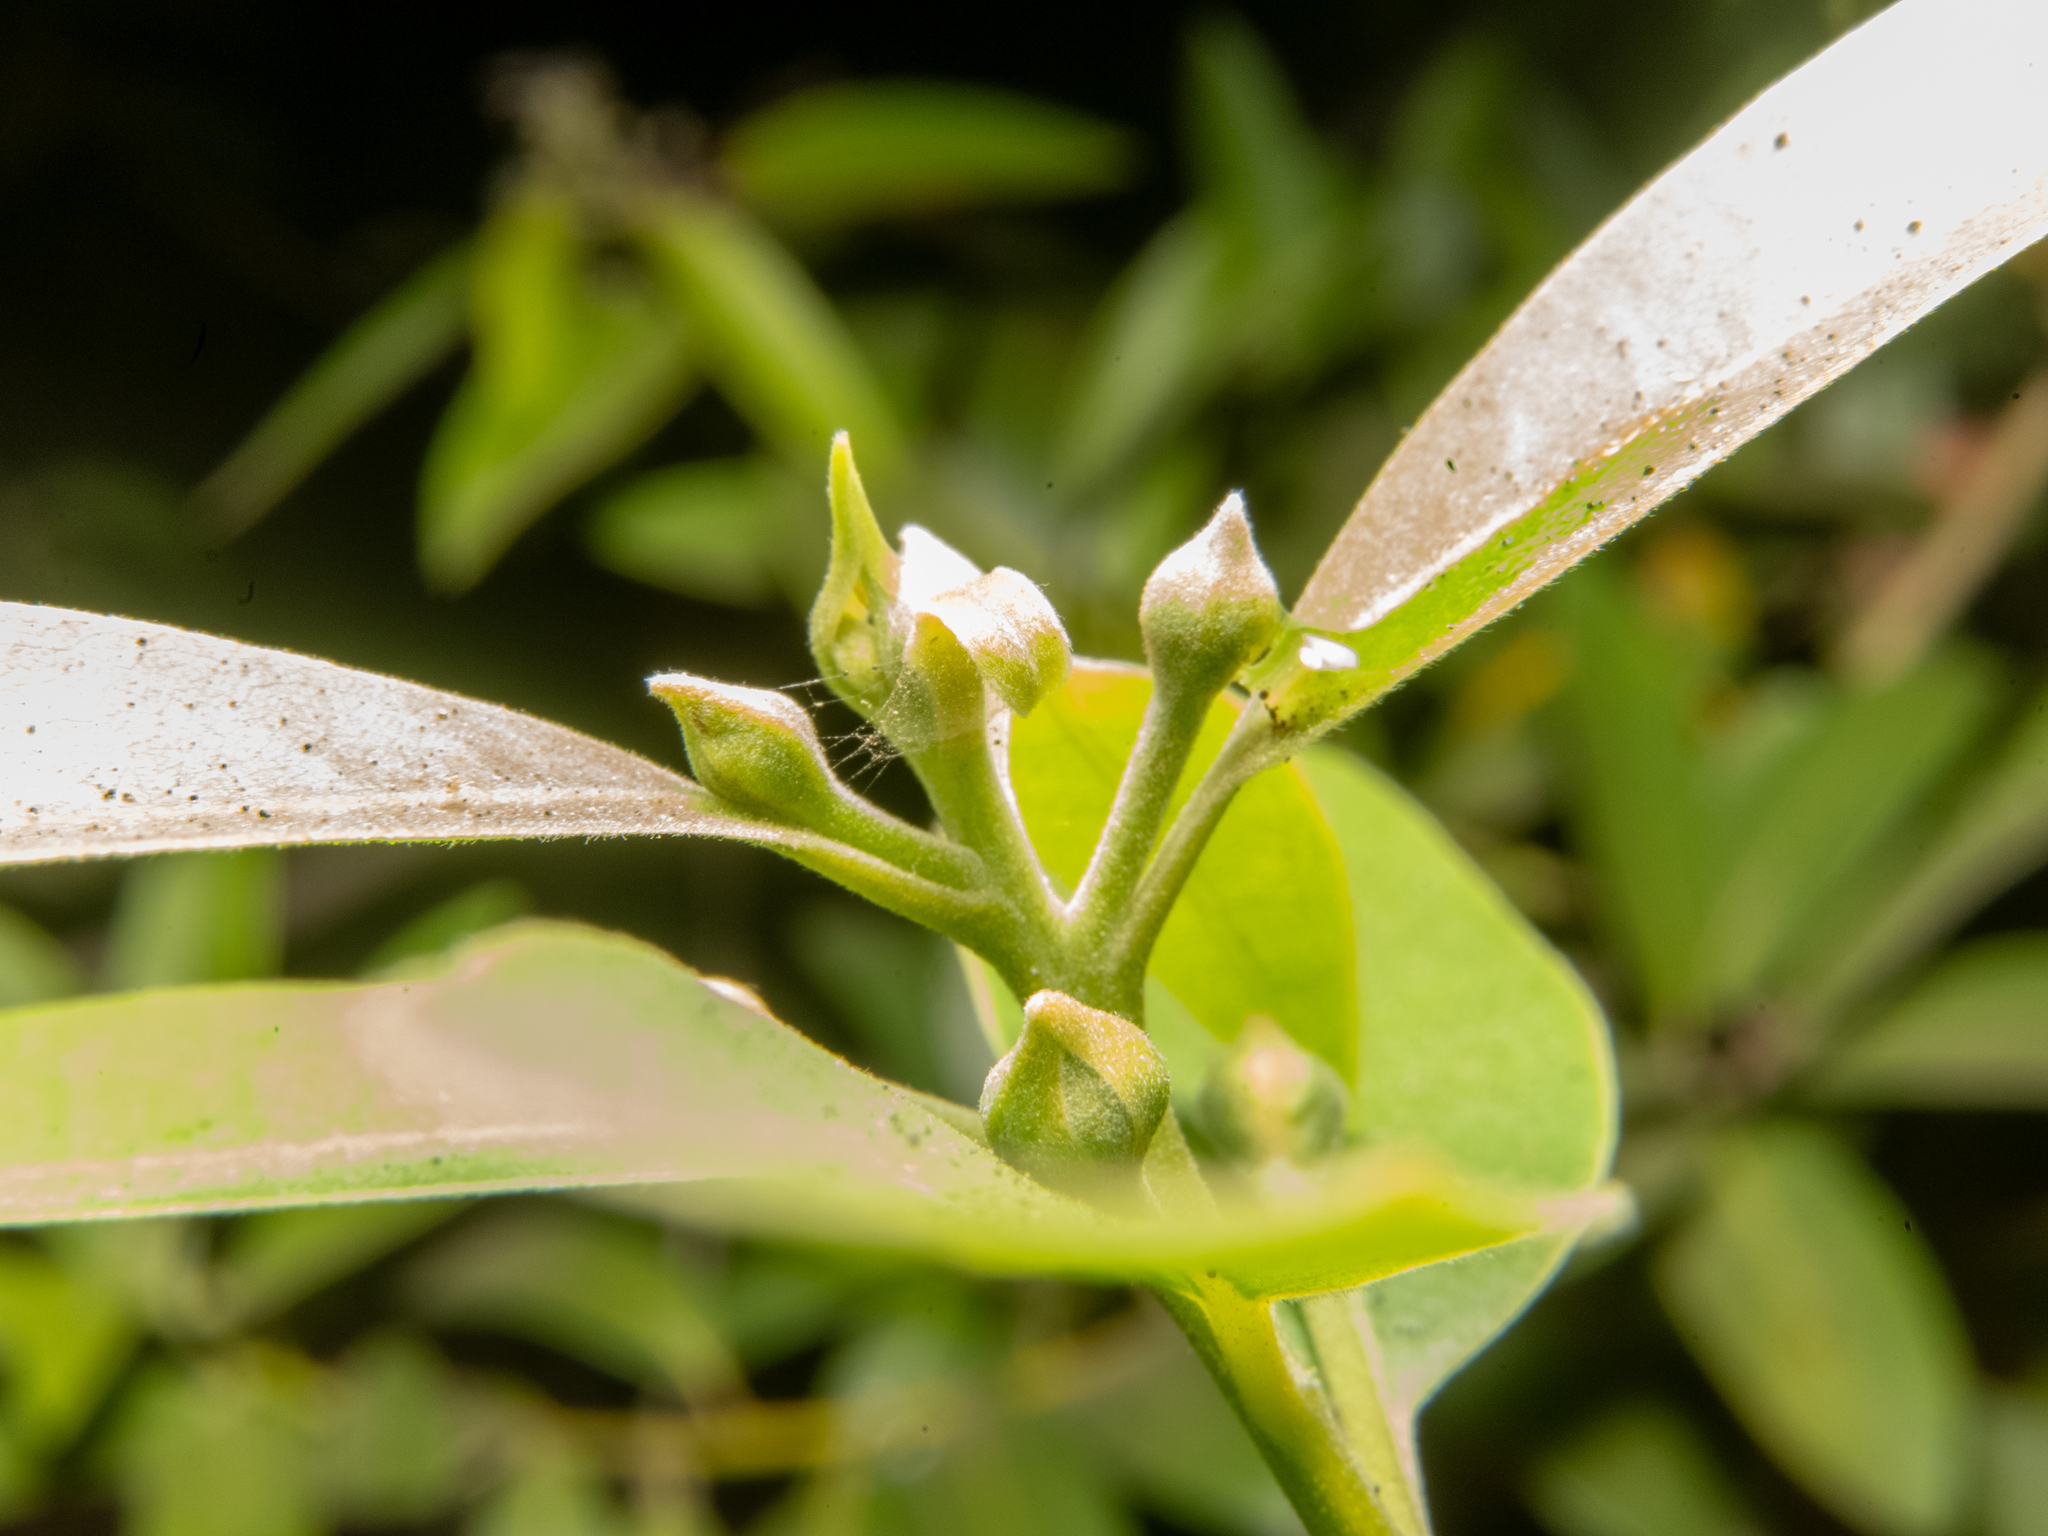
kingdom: Plantae
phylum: Tracheophyta
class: Magnoliopsida
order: Laurales
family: Lauraceae
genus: Umbellularia
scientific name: Umbellularia californica
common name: California bay
